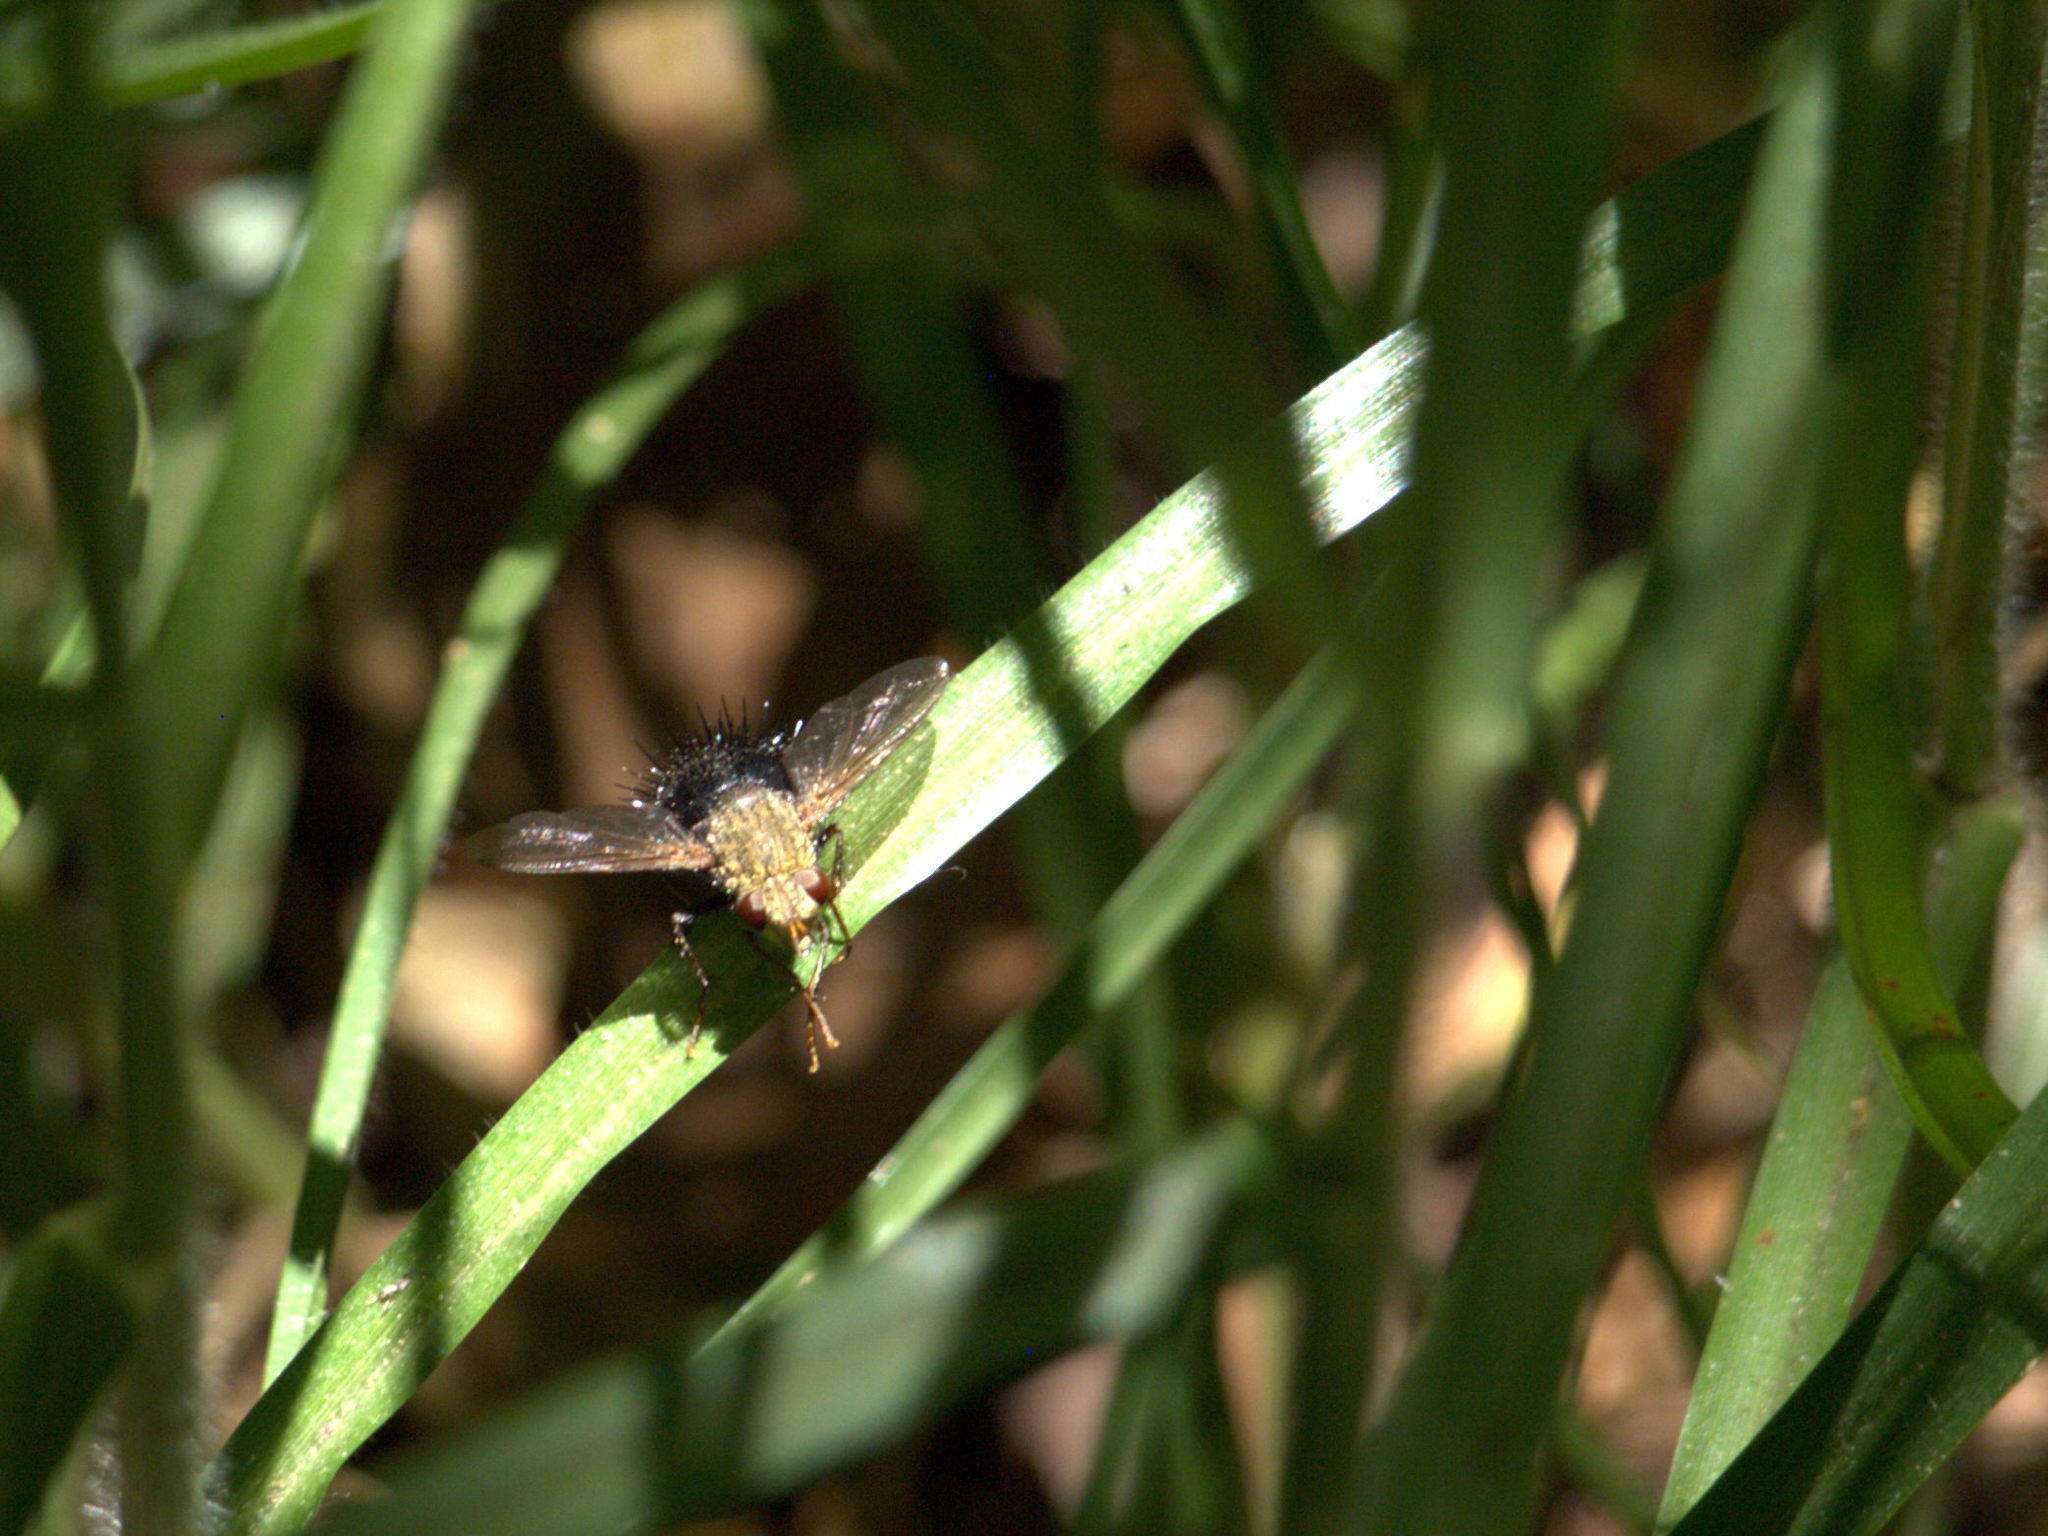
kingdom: Animalia
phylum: Arthropoda
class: Insecta
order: Diptera
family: Tachinidae
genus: Archytas
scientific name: Archytas apicifer
